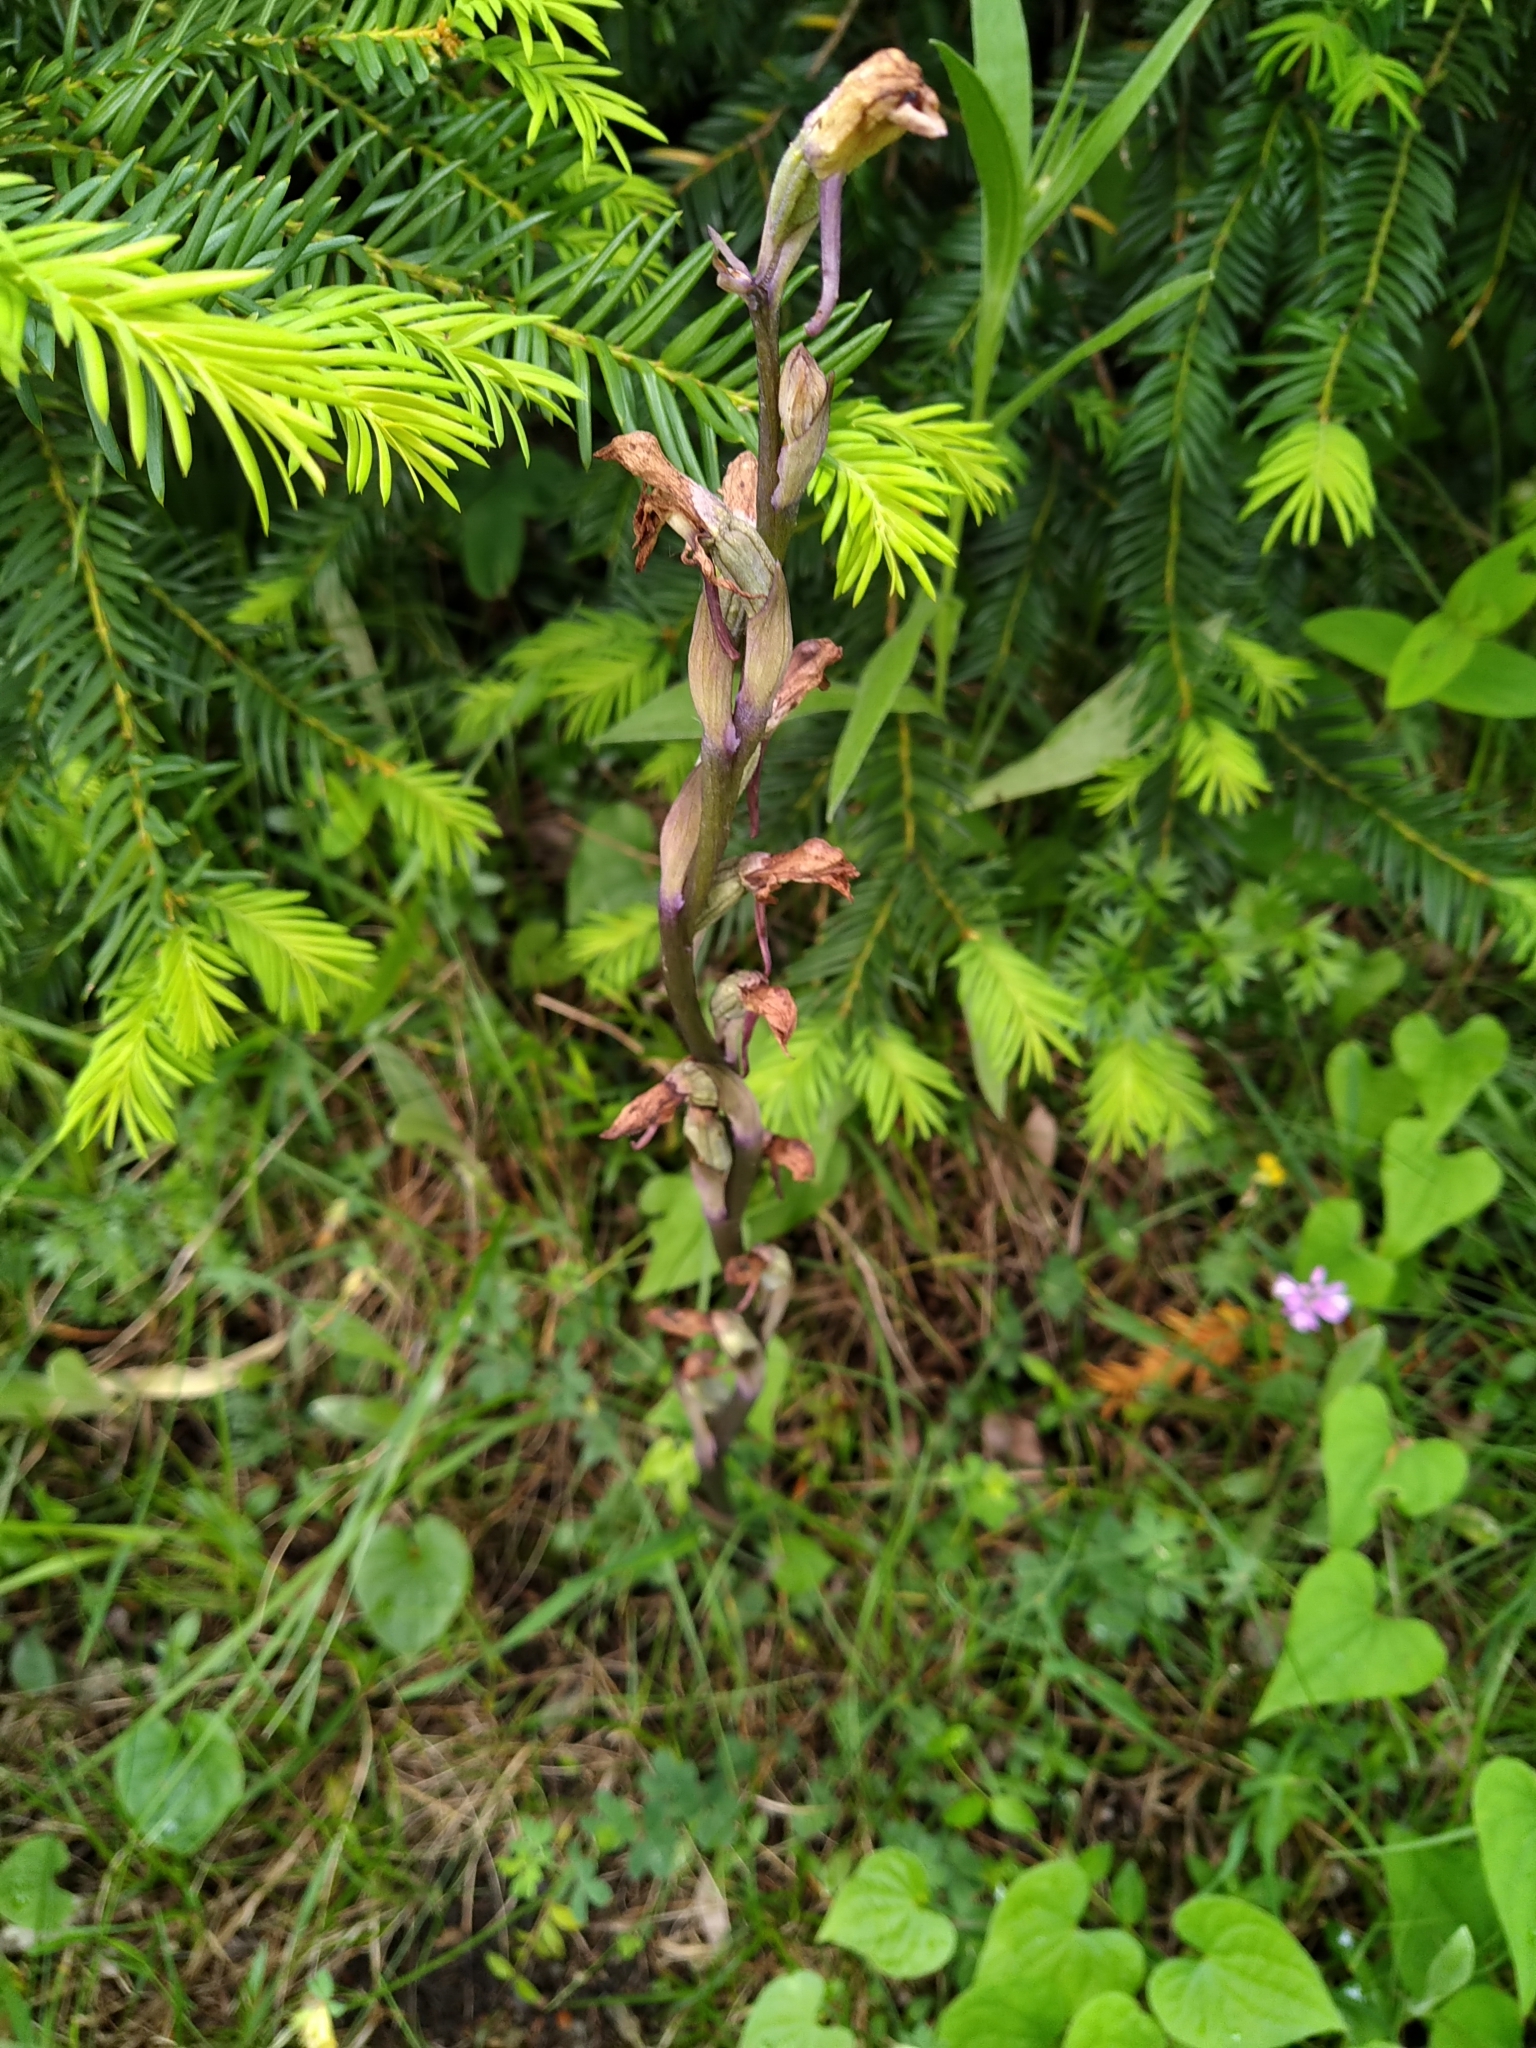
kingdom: Plantae
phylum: Tracheophyta
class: Liliopsida
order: Asparagales
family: Orchidaceae
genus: Limodorum
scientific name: Limodorum abortivum
